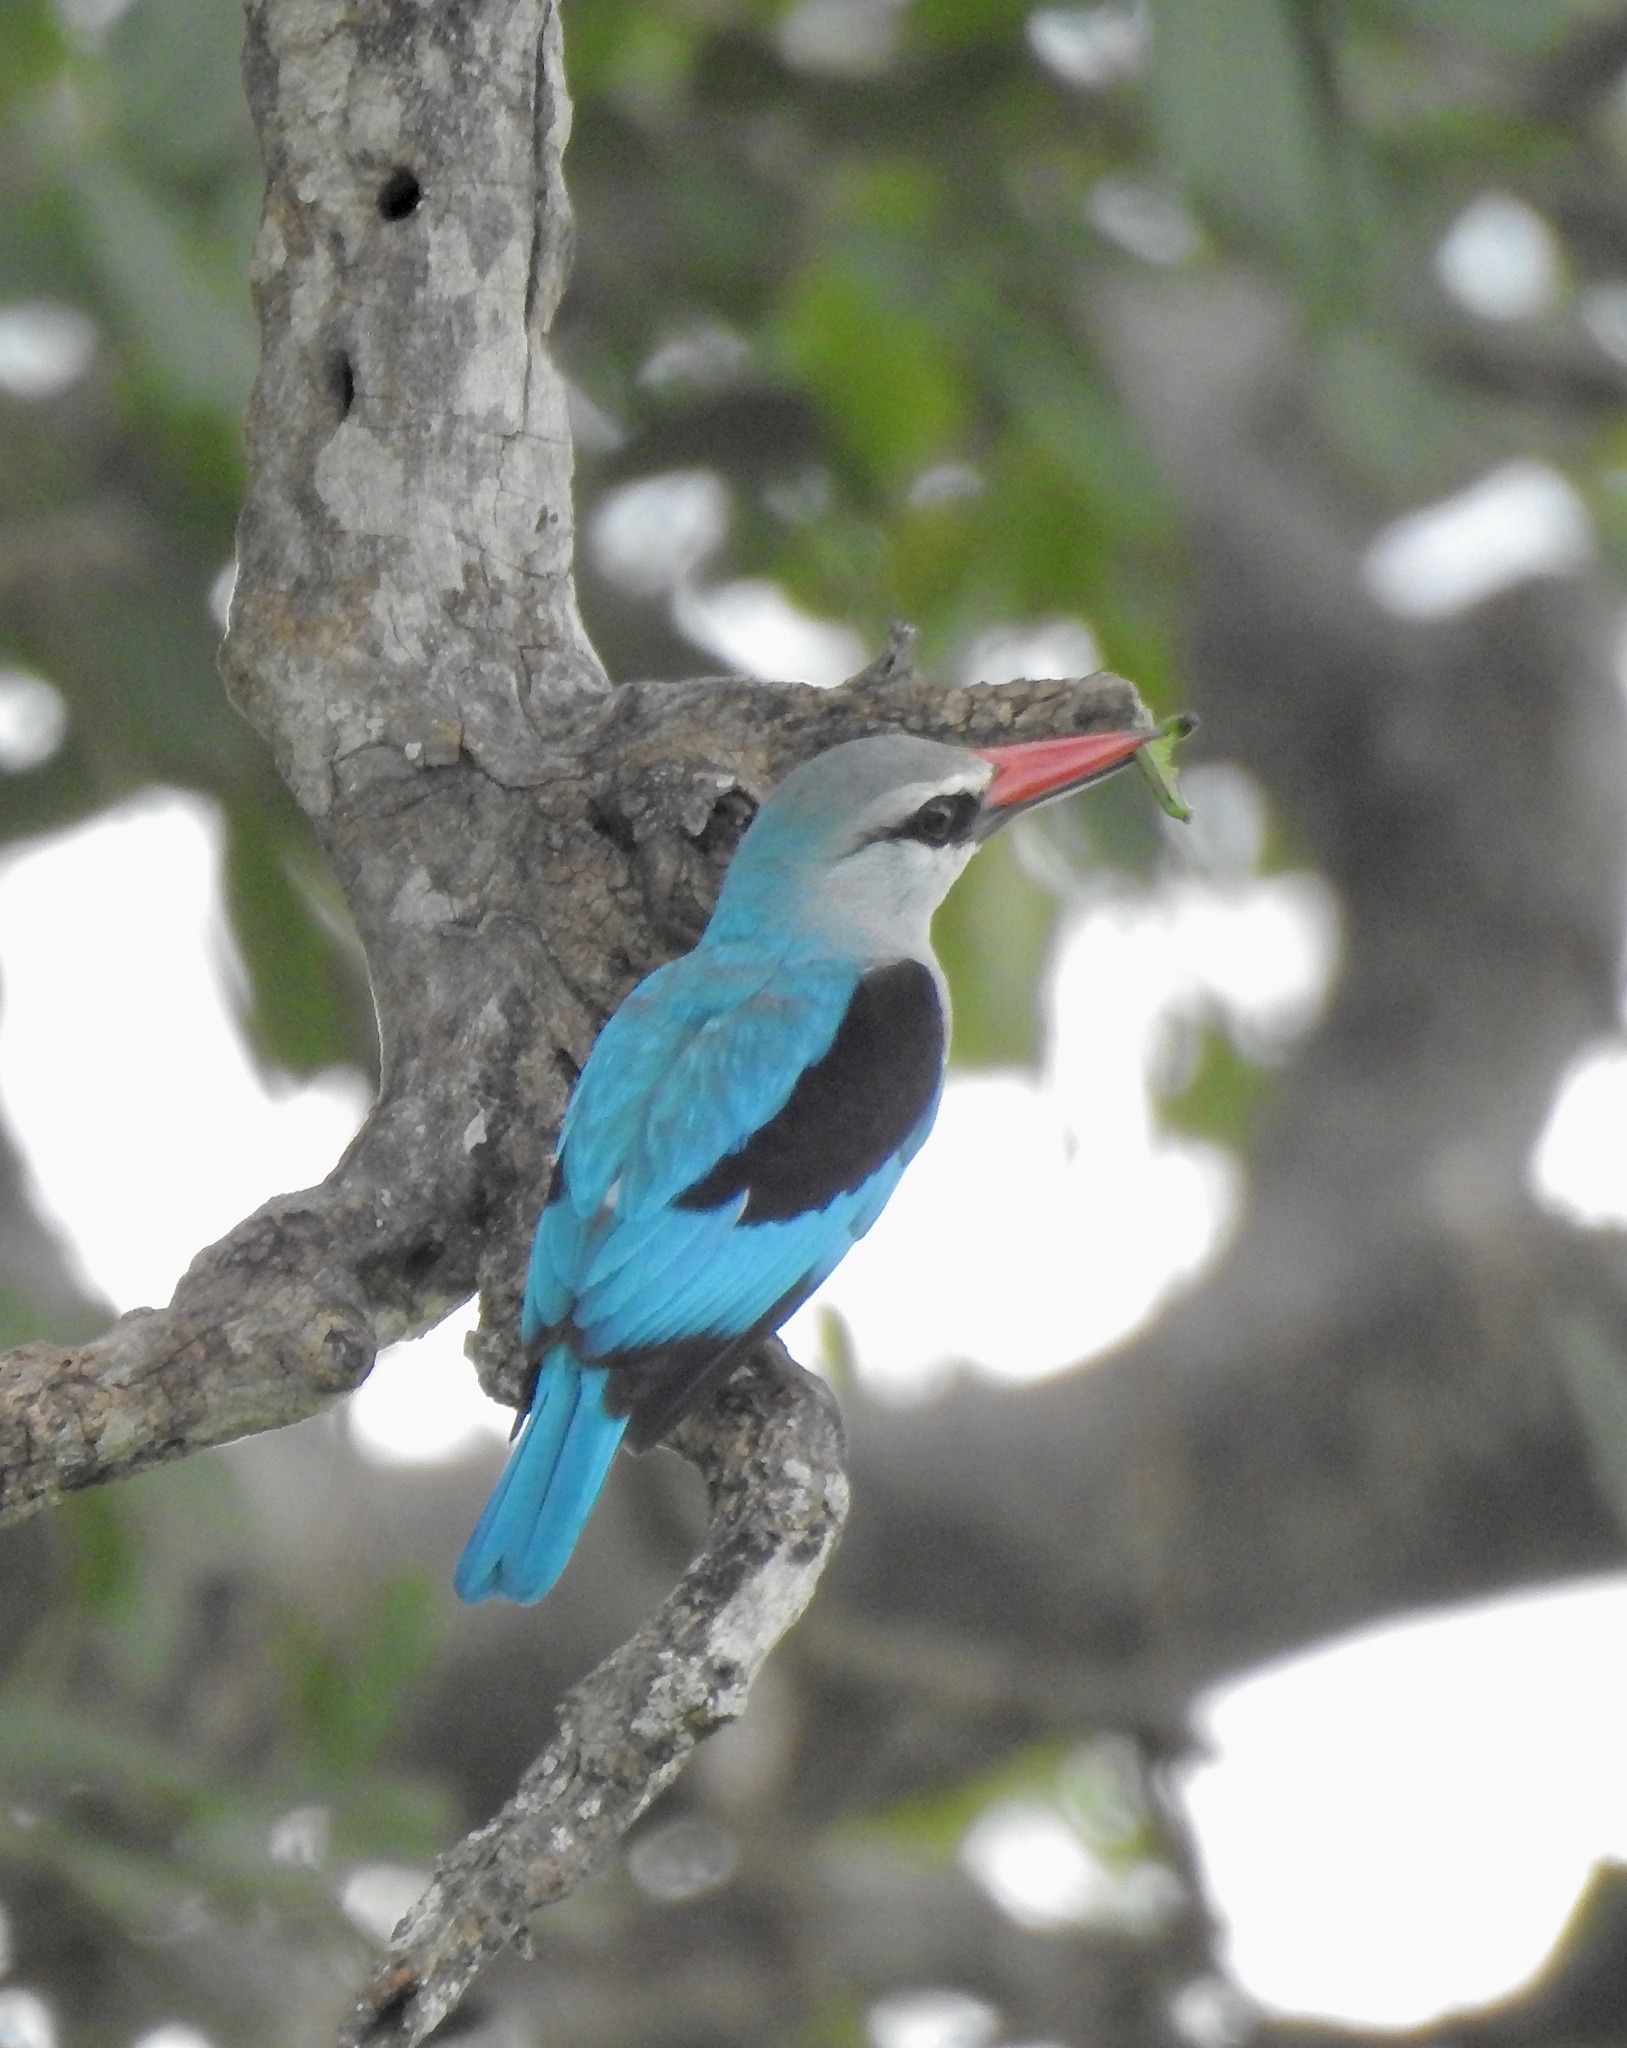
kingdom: Animalia
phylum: Chordata
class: Aves
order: Coraciiformes
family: Alcedinidae
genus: Halcyon
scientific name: Halcyon senegalensis
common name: Woodland kingfisher
